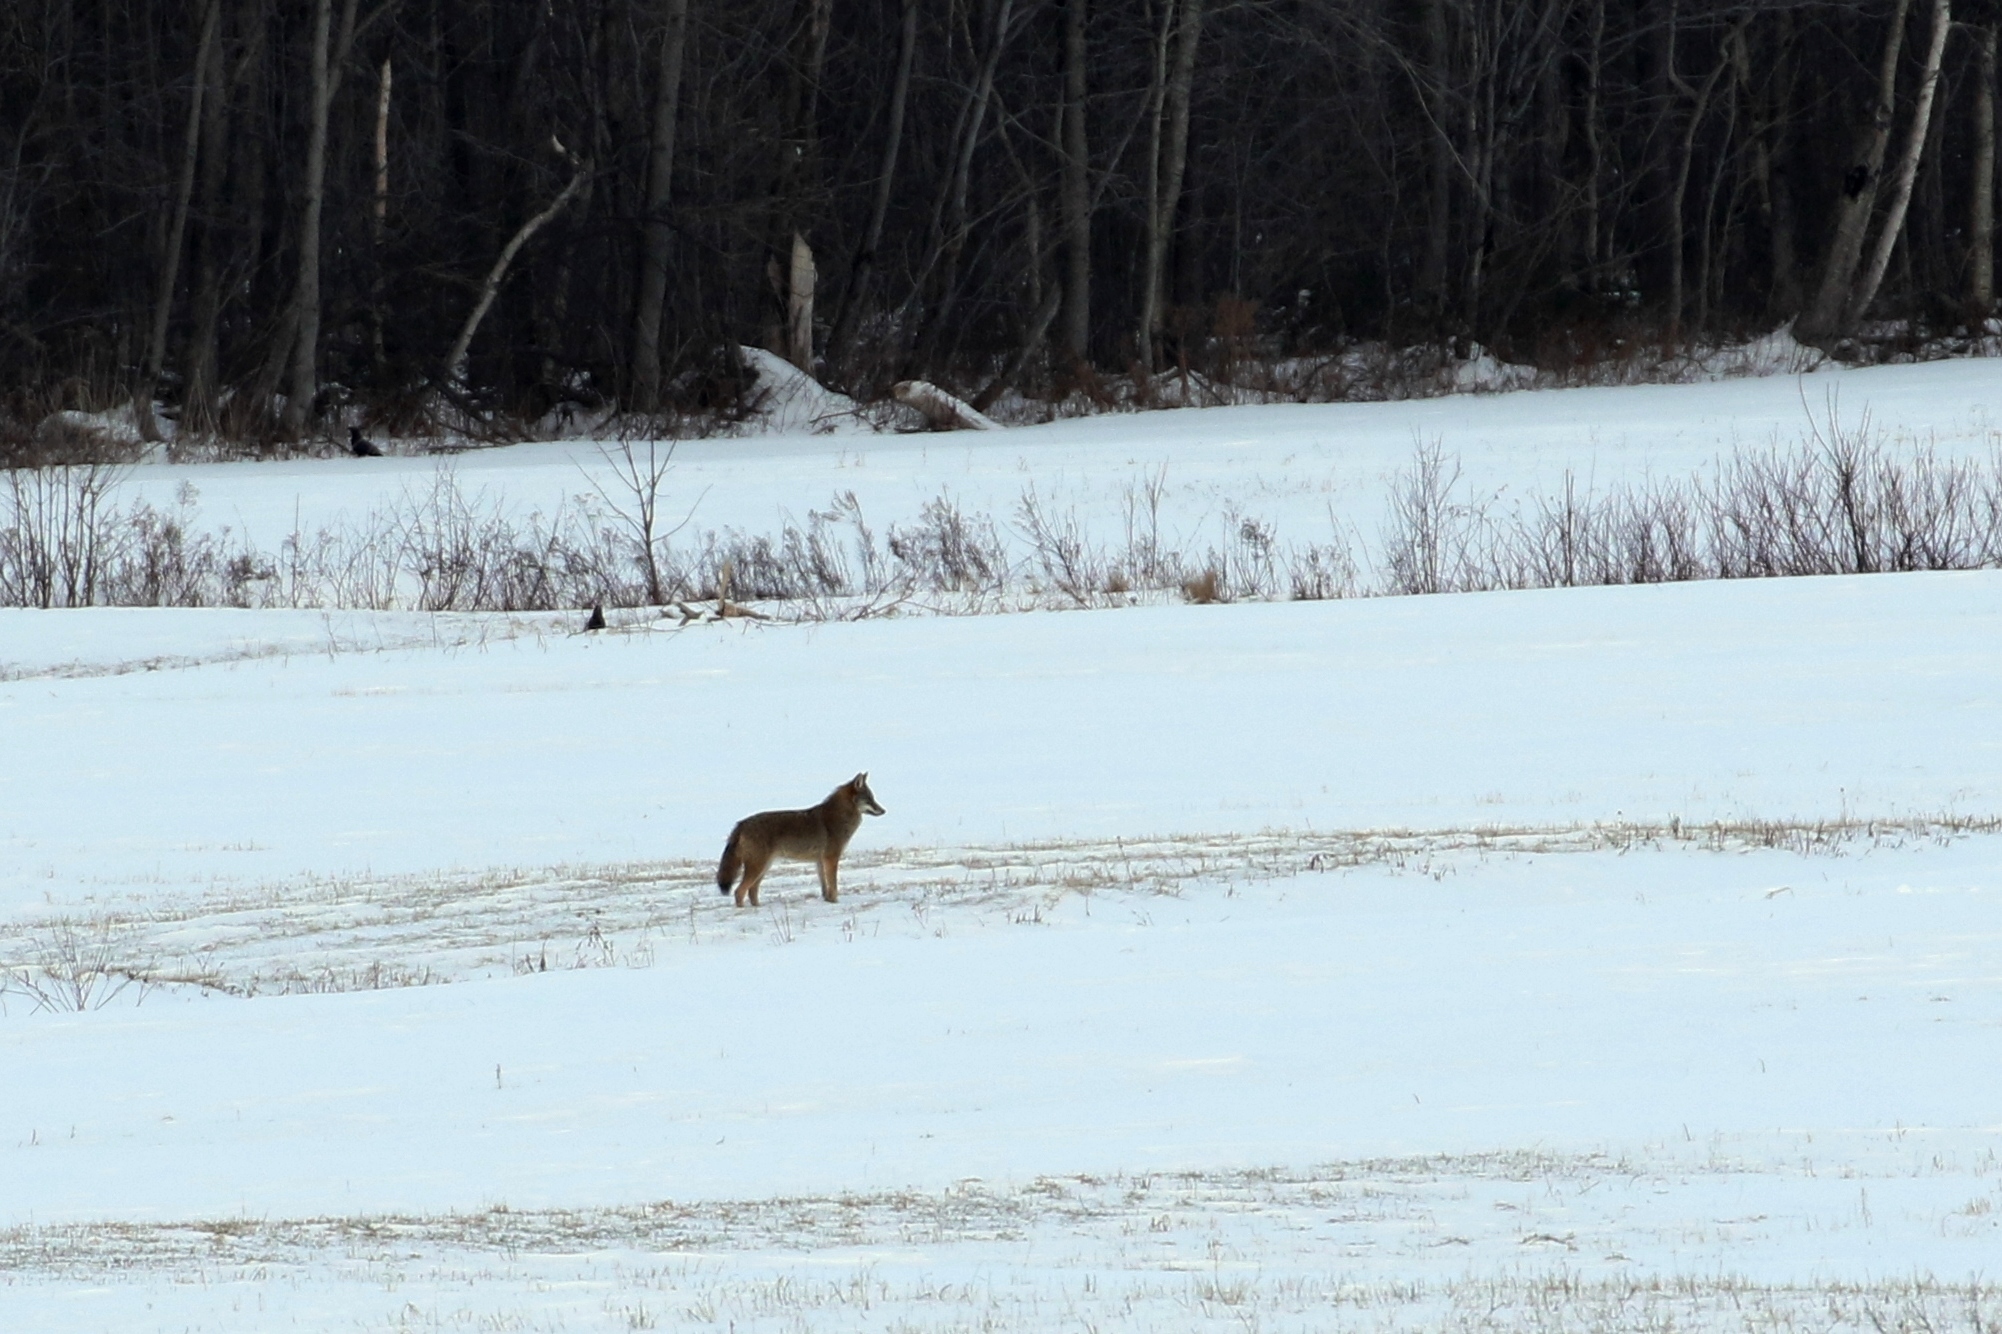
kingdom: Animalia
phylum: Chordata
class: Mammalia
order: Carnivora
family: Canidae
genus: Canis
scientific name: Canis latrans
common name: Coyote
